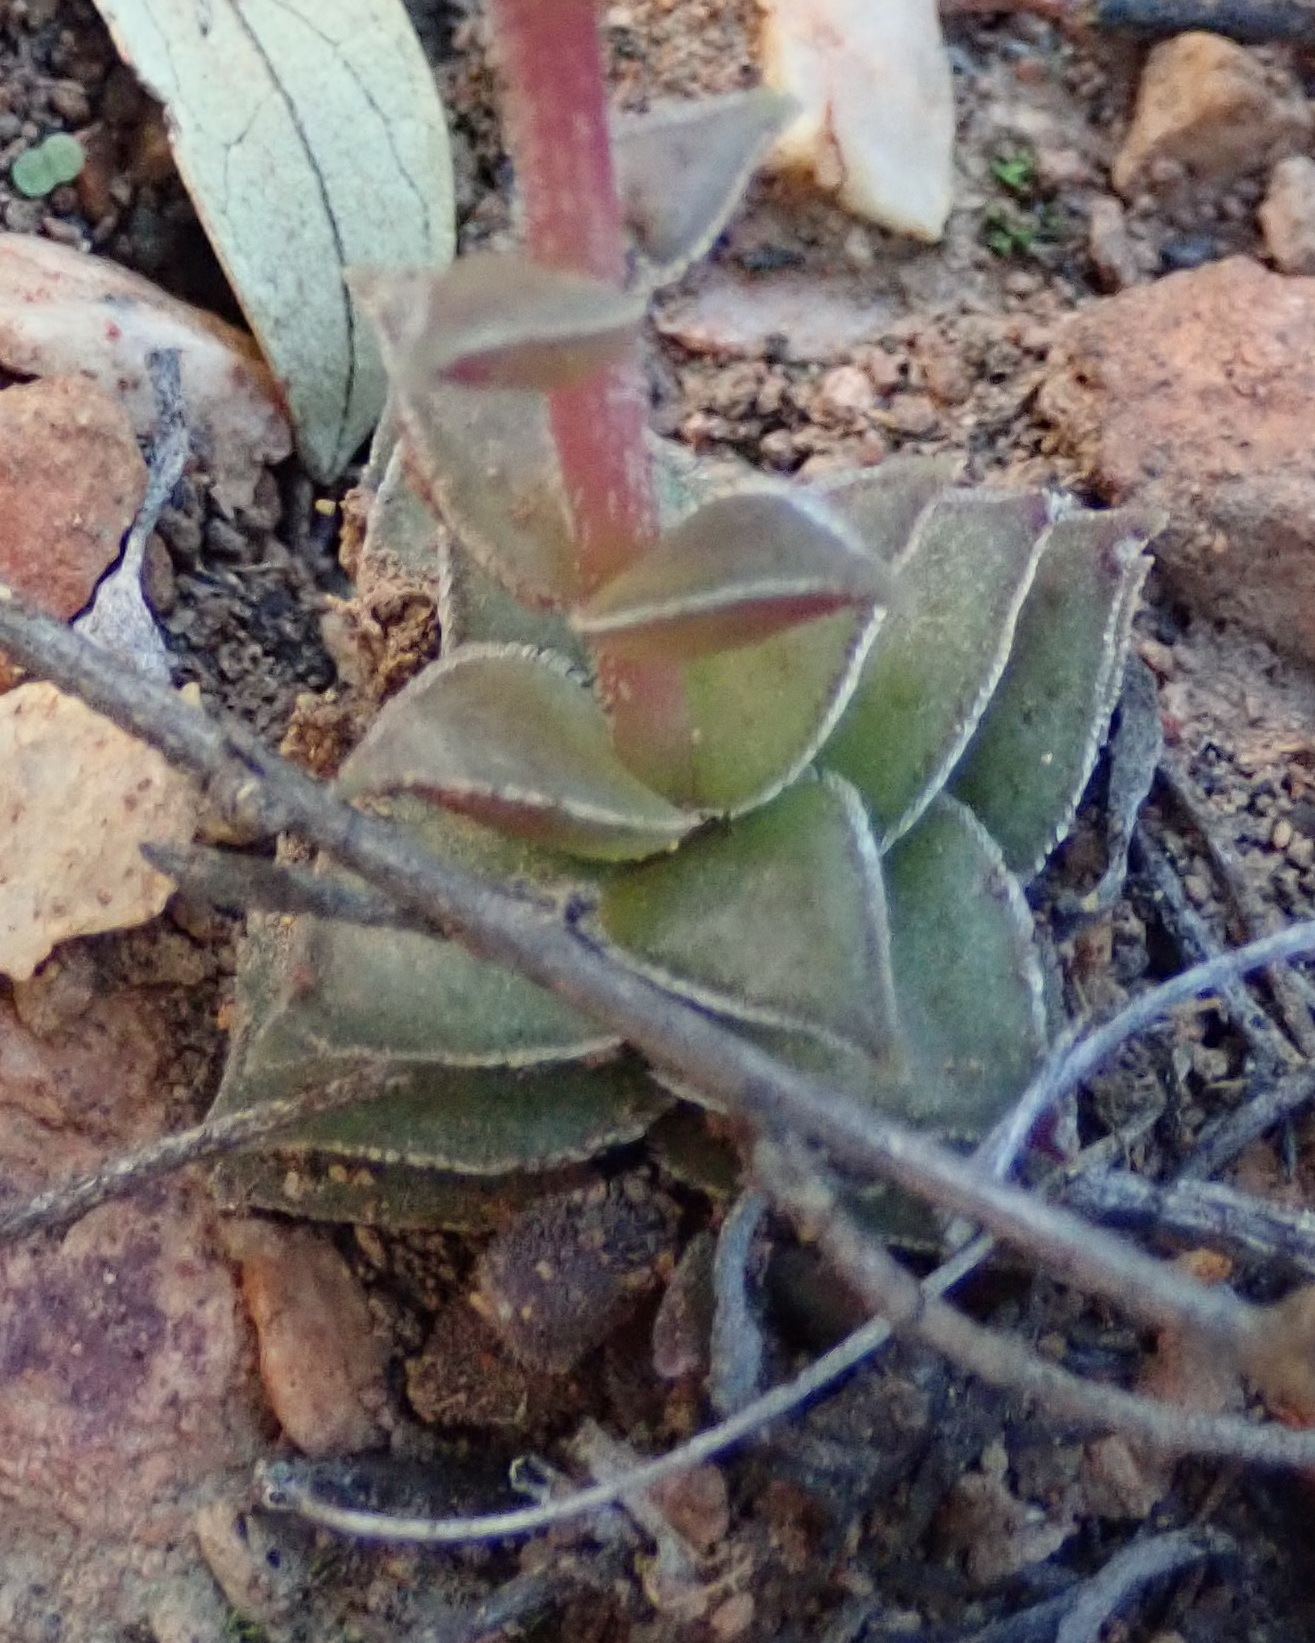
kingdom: Plantae
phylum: Tracheophyta
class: Magnoliopsida
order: Saxifragales
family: Crassulaceae
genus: Crassula
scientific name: Crassula capitella
